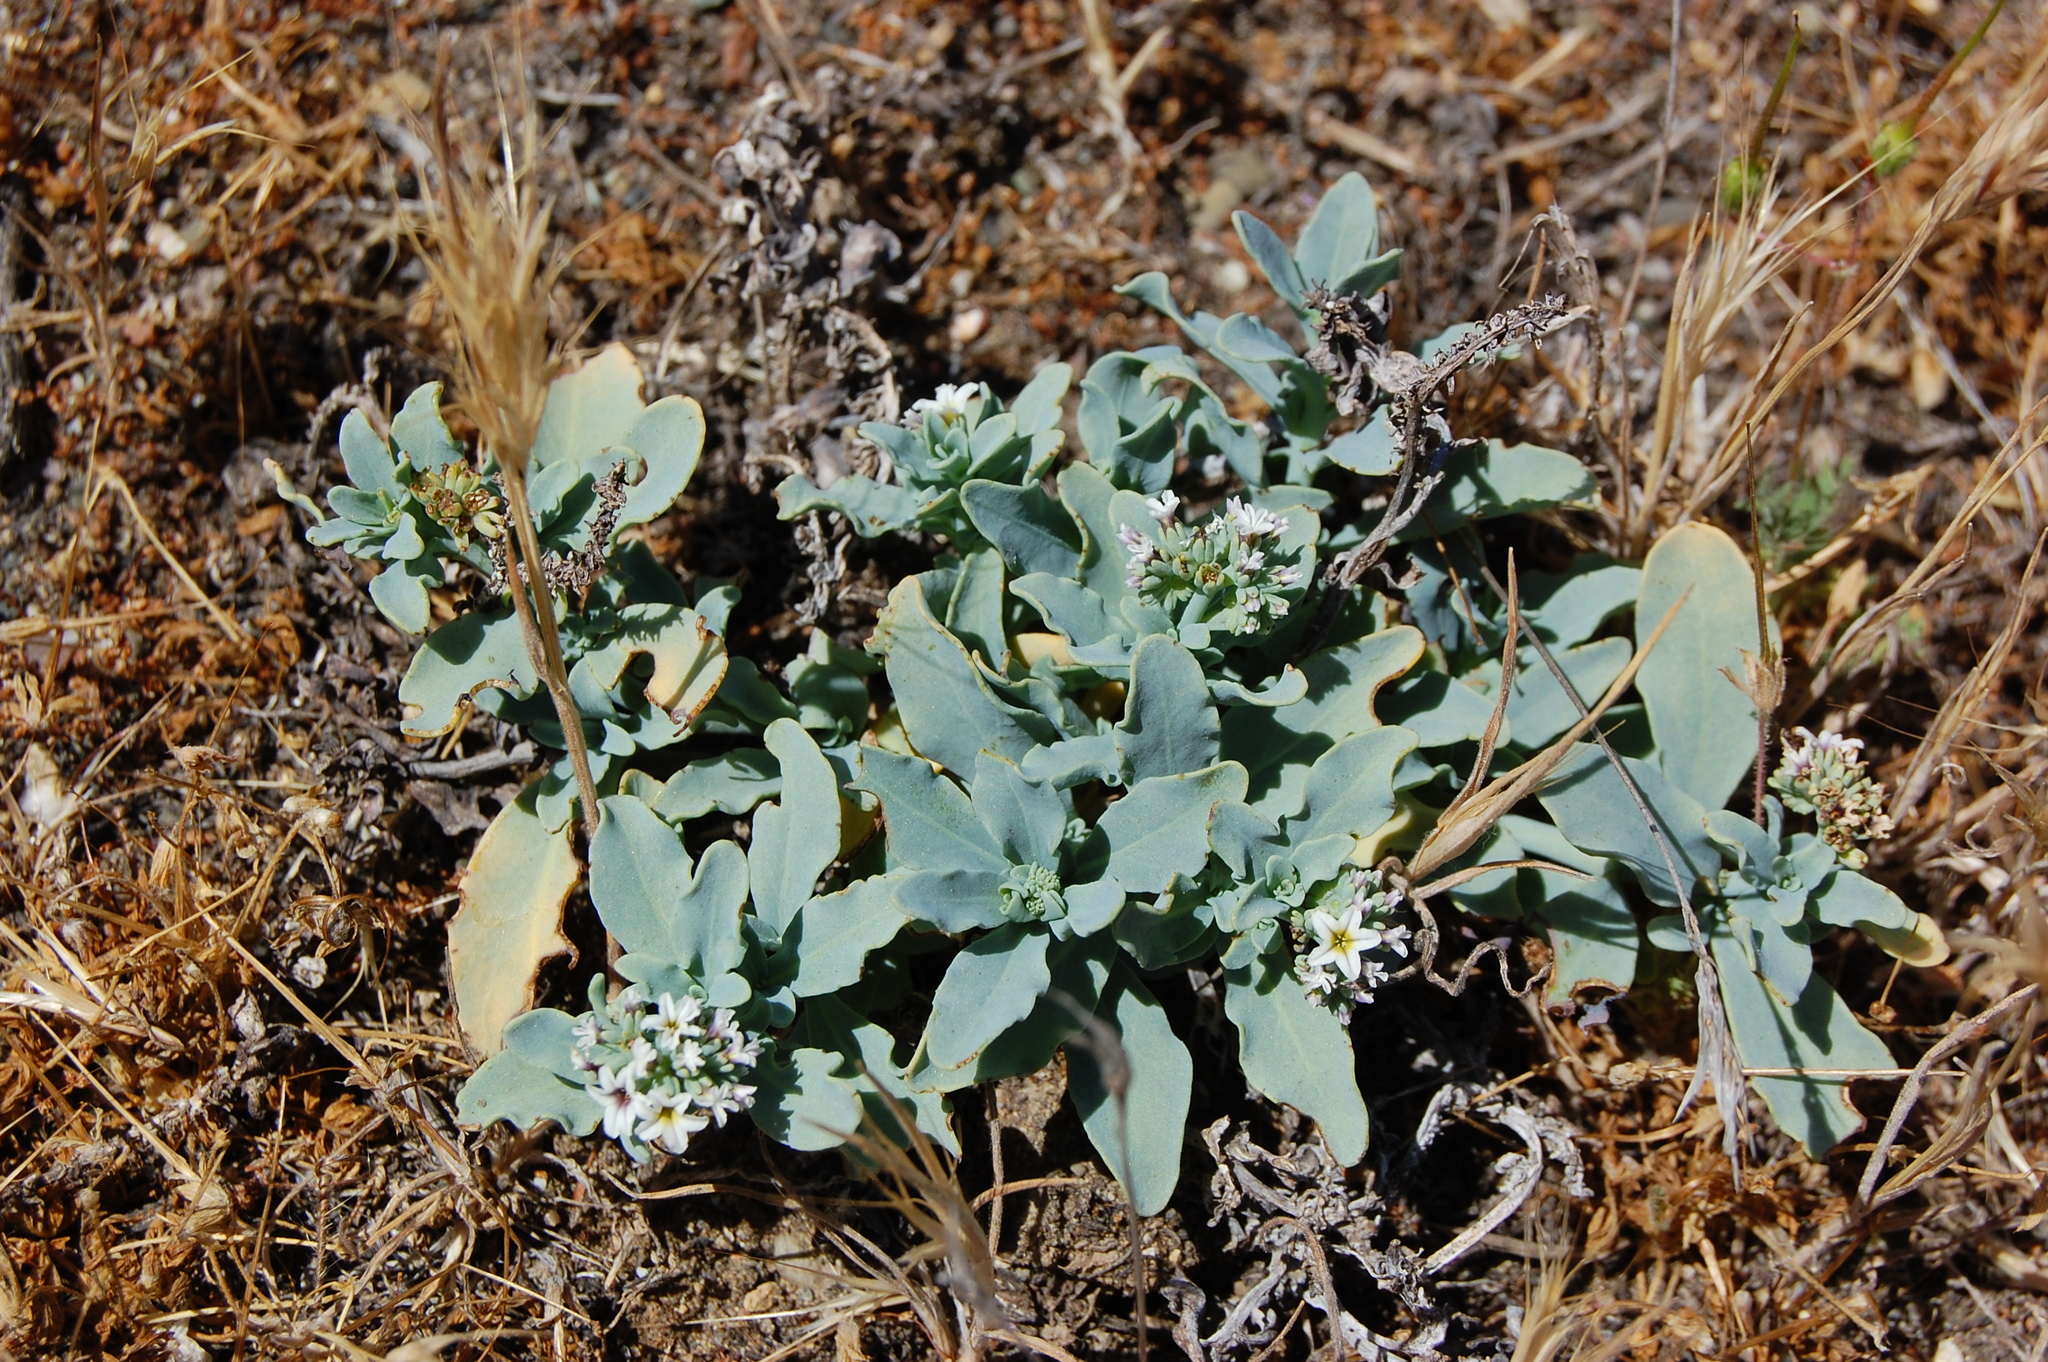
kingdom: Plantae
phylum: Tracheophyta
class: Magnoliopsida
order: Boraginales
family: Heliotropiaceae
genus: Heliotropium
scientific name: Heliotropium curassavicum
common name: Seaside heliotrope
